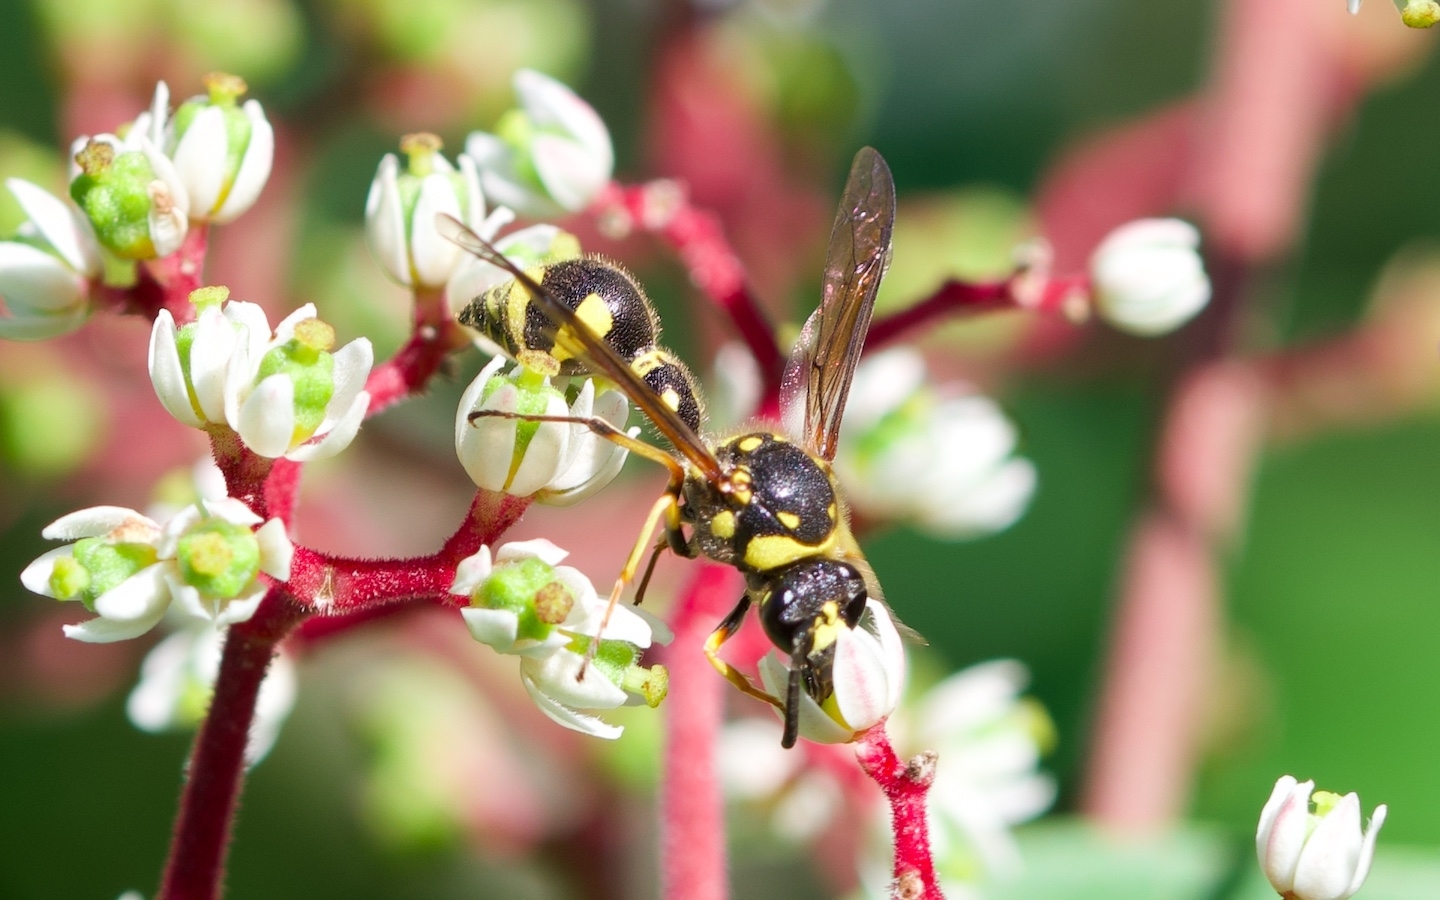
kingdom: Animalia
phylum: Arthropoda
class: Insecta
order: Hymenoptera
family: Vespidae
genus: Eumenes
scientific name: Eumenes papillarius
